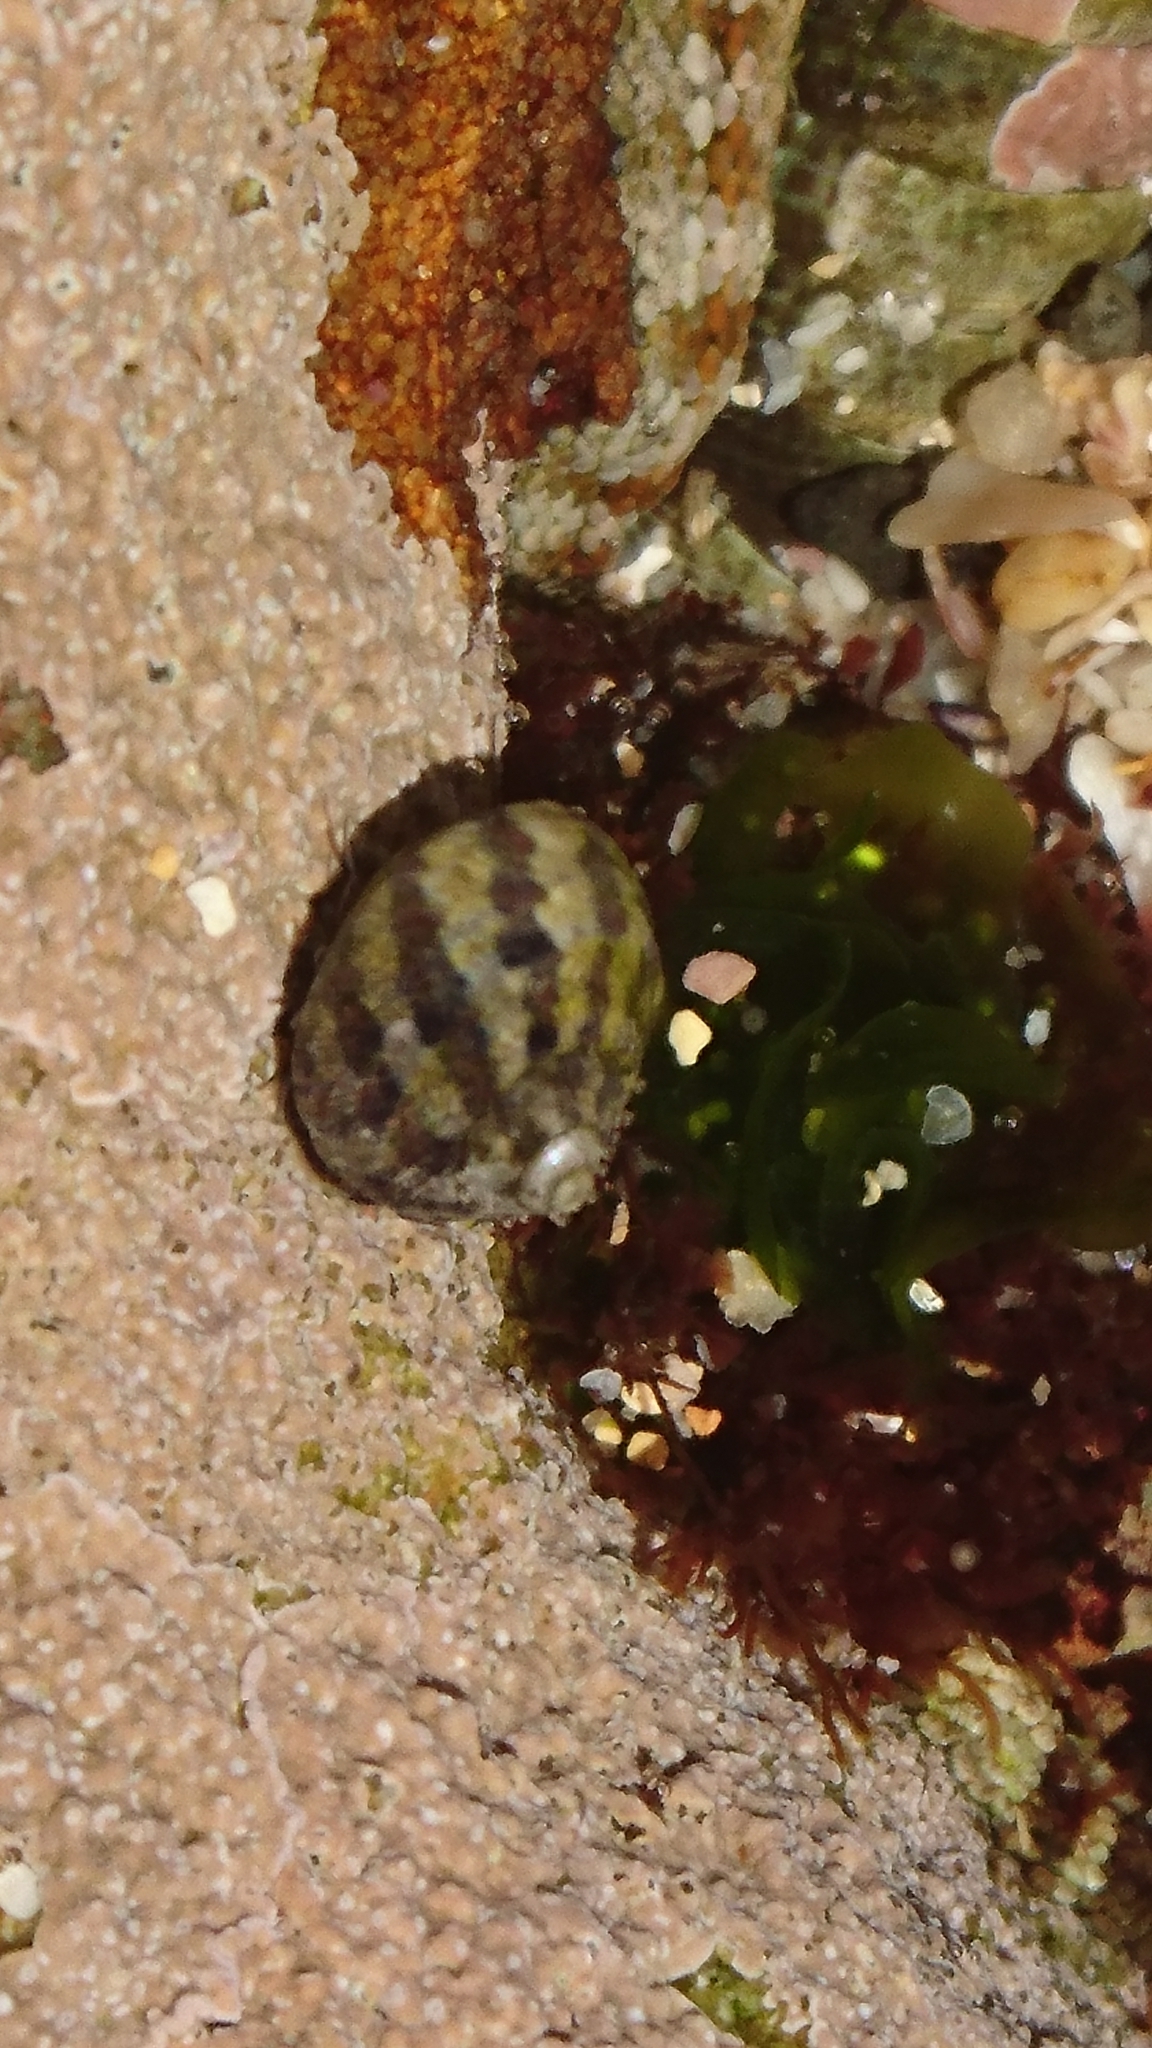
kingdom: Animalia
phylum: Mollusca
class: Gastropoda
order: Trochida
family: Trochidae
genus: Austrocochlea
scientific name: Austrocochlea porcata
